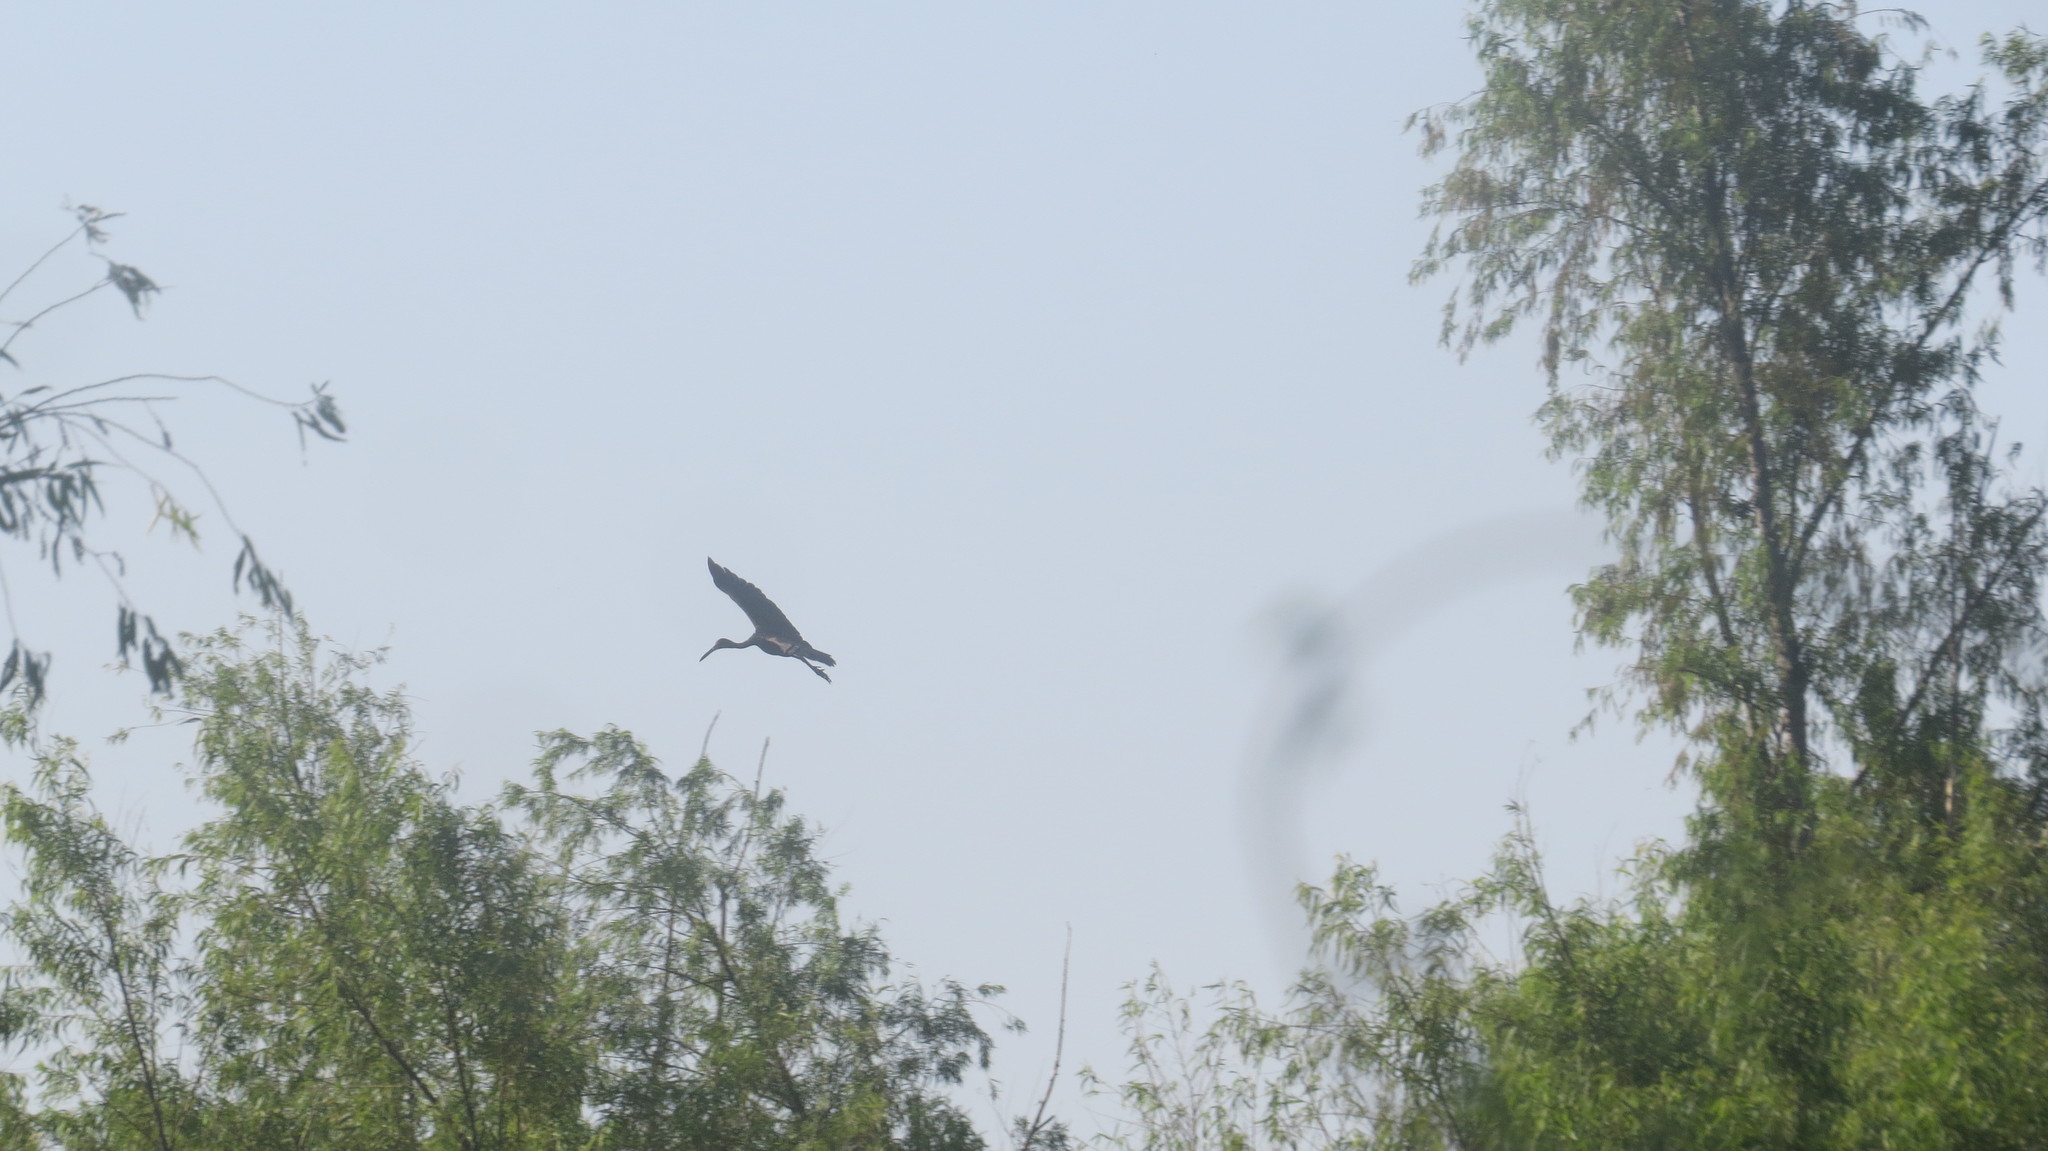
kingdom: Animalia
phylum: Chordata
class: Aves
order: Gruiformes
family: Aramidae
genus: Aramus
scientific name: Aramus guarauna
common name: Limpkin
